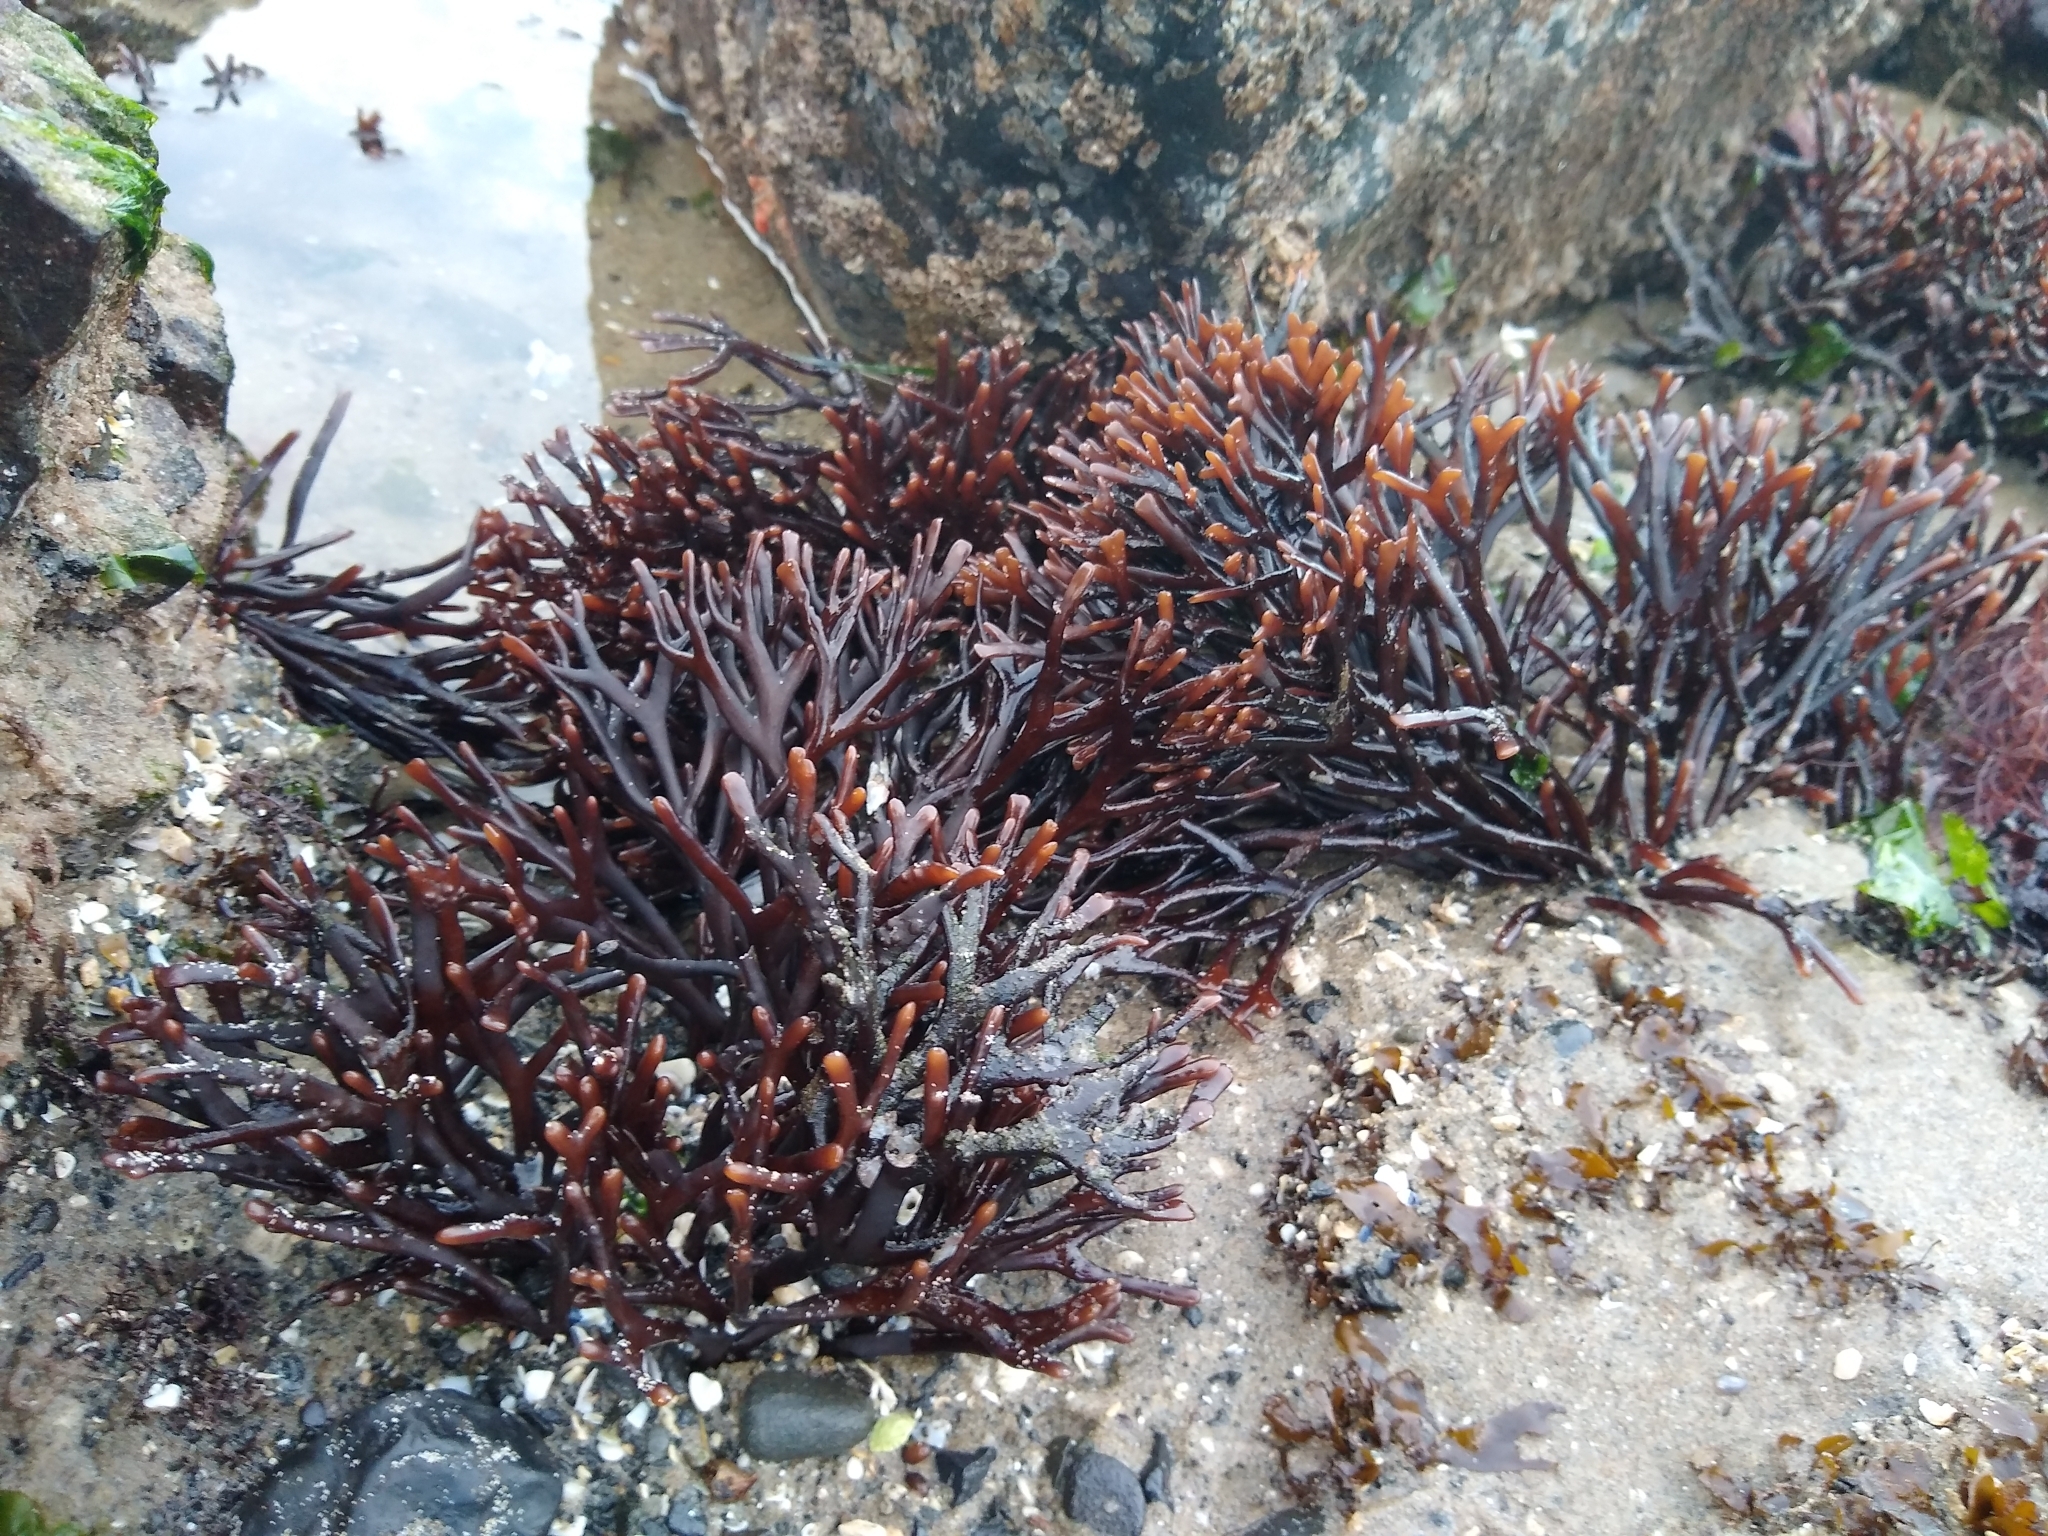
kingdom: Plantae
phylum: Rhodophyta
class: Florideophyceae
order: Gigartinales
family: Phyllophoraceae
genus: Ahnfeltiopsis
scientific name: Ahnfeltiopsis linearis
